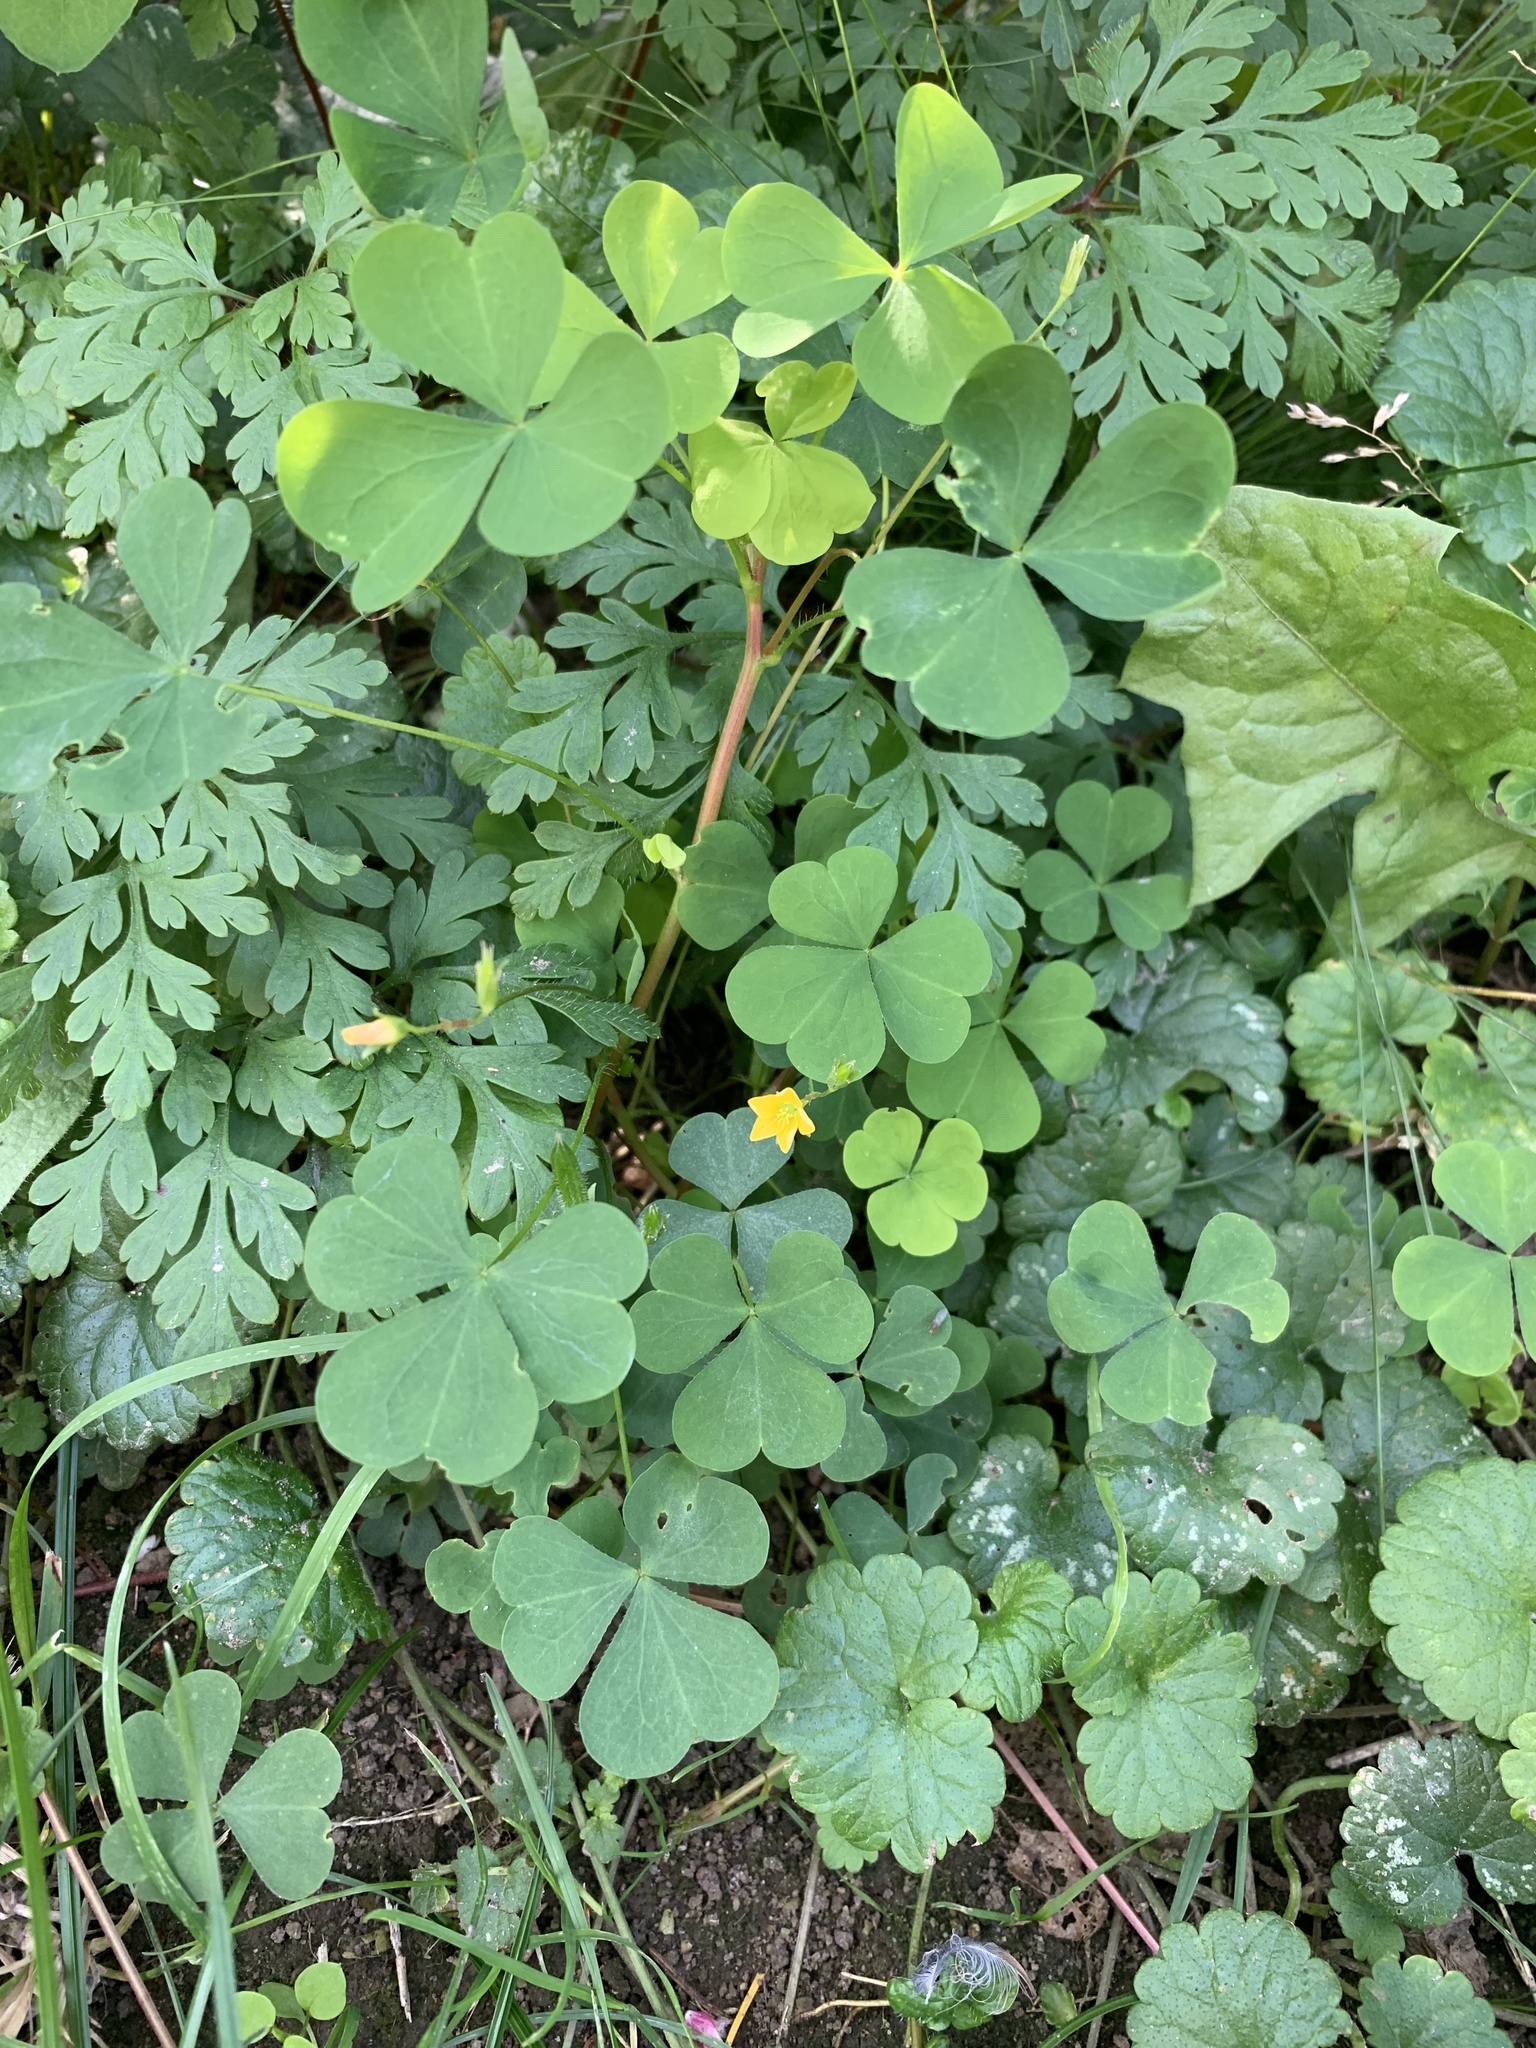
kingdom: Plantae
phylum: Tracheophyta
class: Magnoliopsida
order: Oxalidales
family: Oxalidaceae
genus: Oxalis
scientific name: Oxalis stricta
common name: Upright yellow-sorrel
